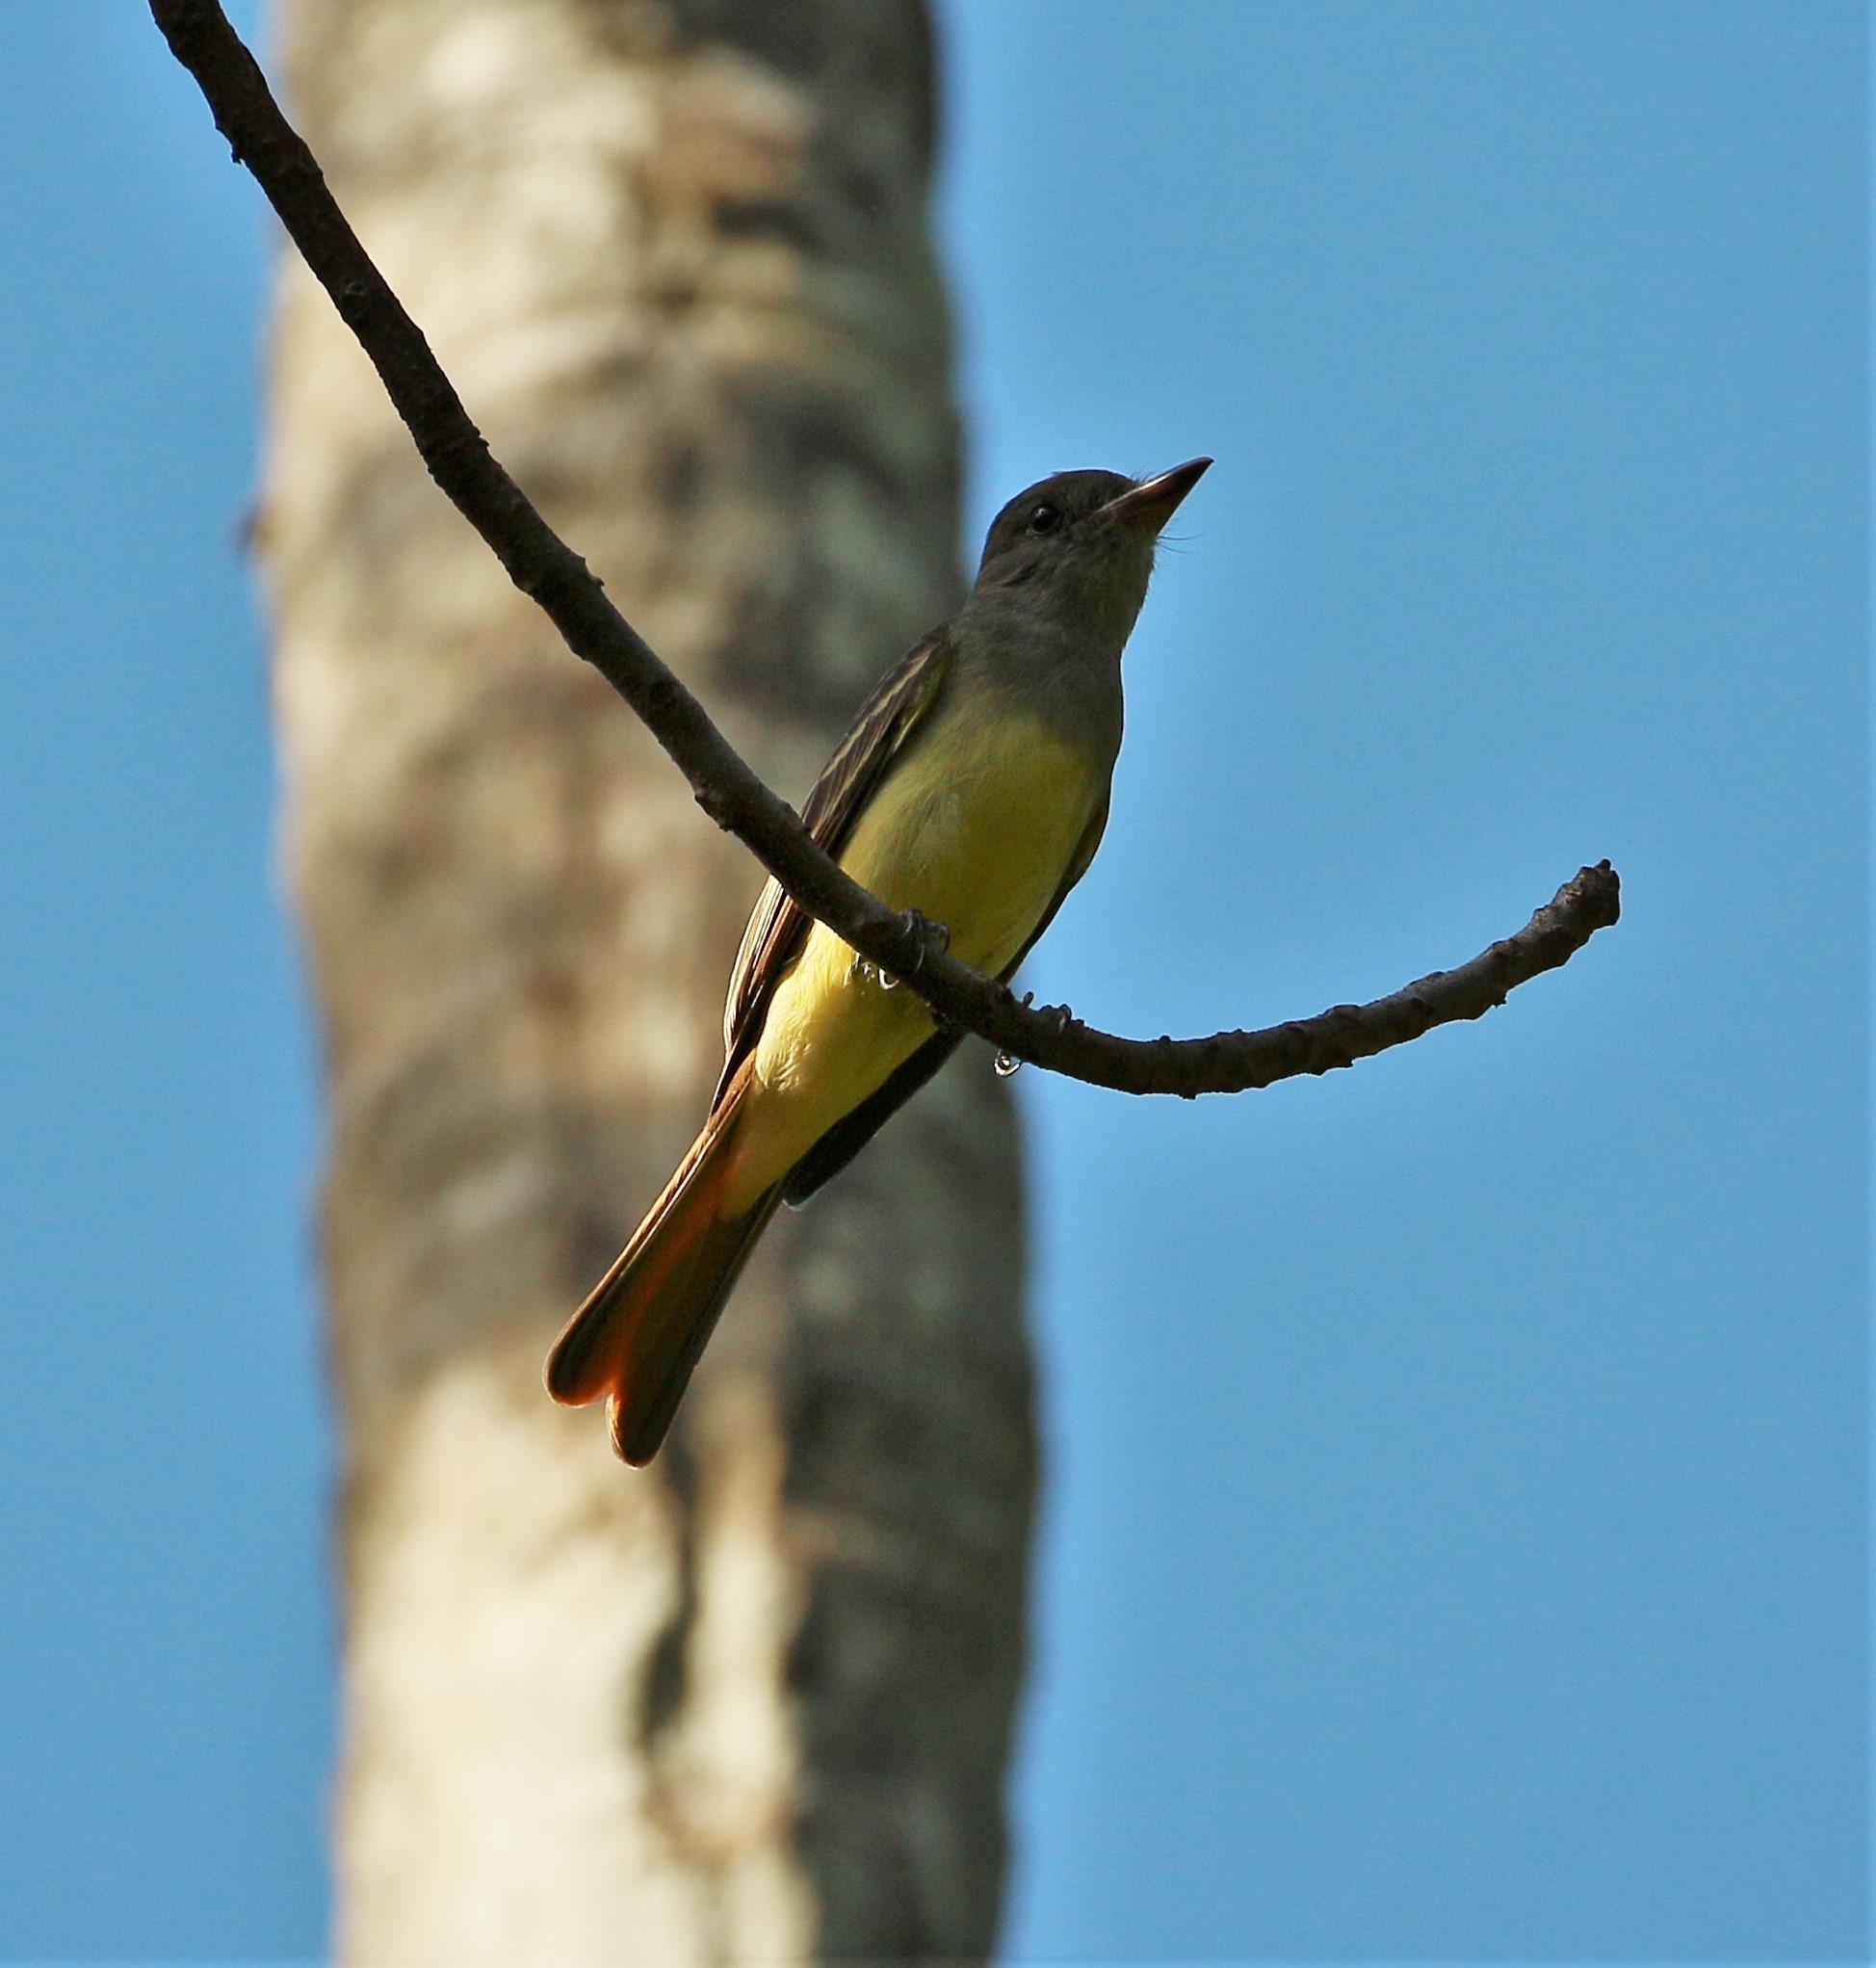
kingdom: Animalia
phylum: Chordata
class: Aves
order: Passeriformes
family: Tyrannidae
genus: Myiarchus
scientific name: Myiarchus crinitus
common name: Great crested flycatcher
